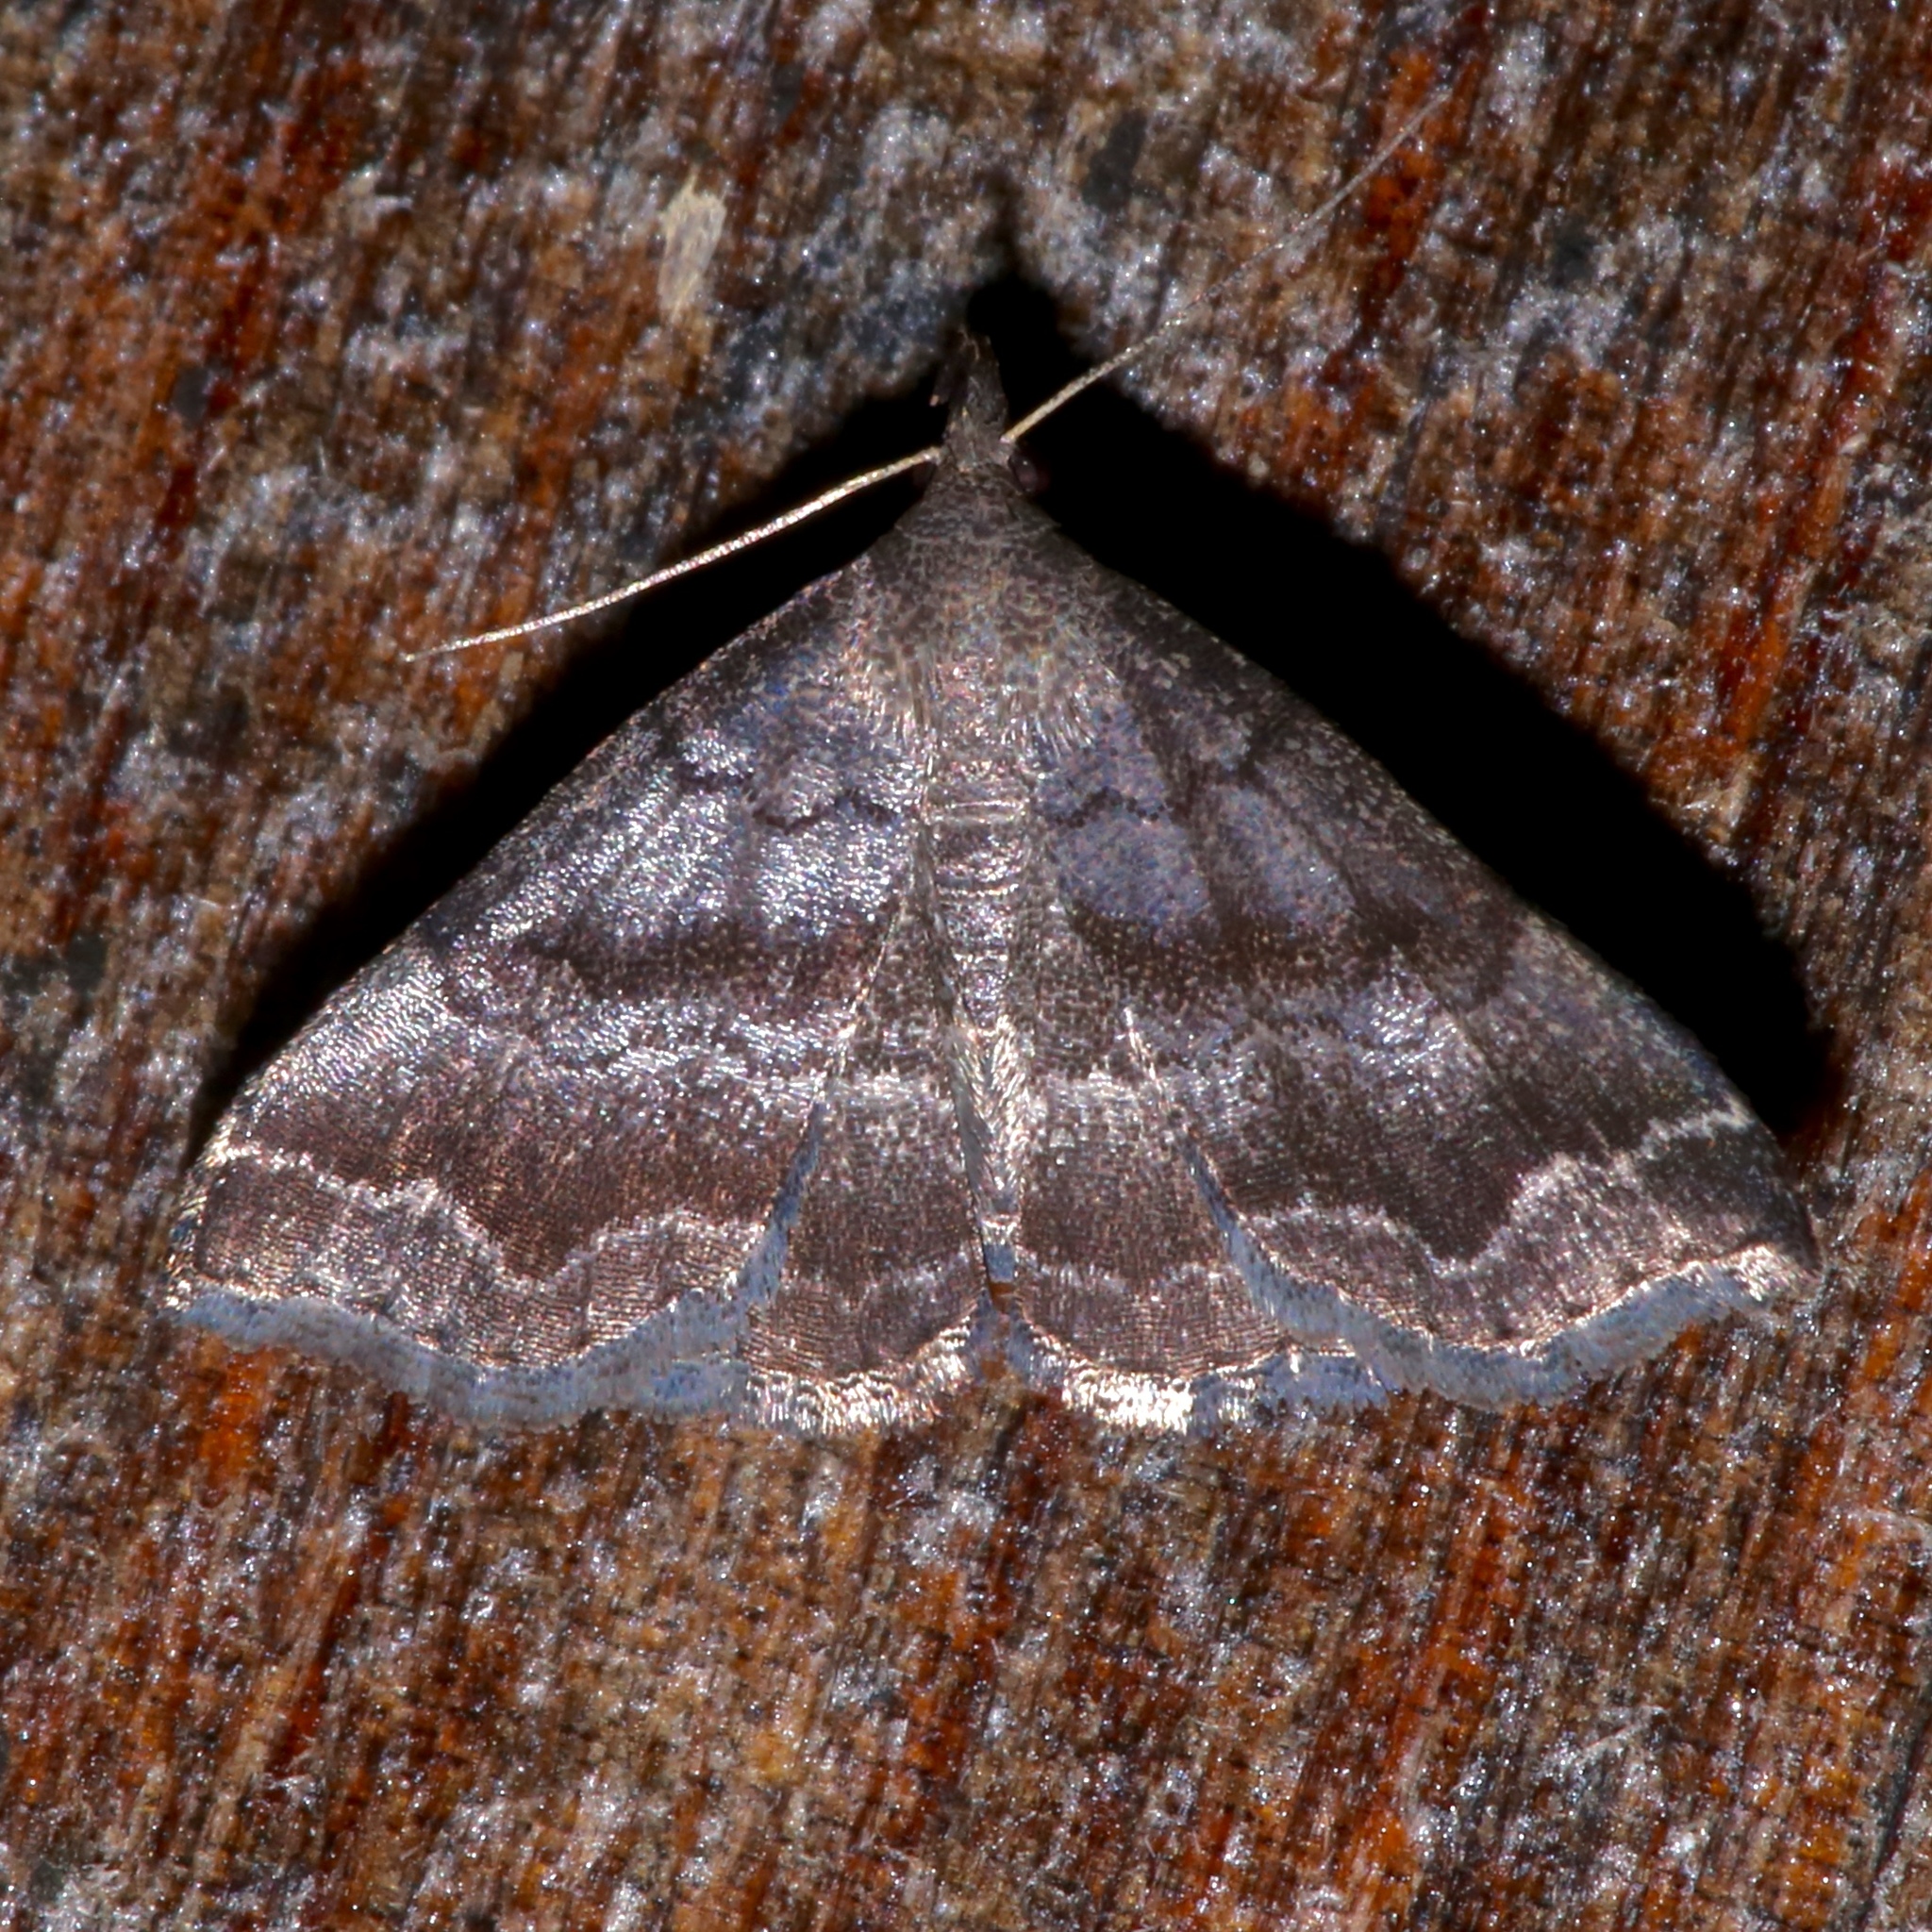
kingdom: Animalia
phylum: Arthropoda
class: Insecta
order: Lepidoptera
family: Erebidae
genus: Phalaenostola
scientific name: Phalaenostola larentioides
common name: Black-banded owlet
